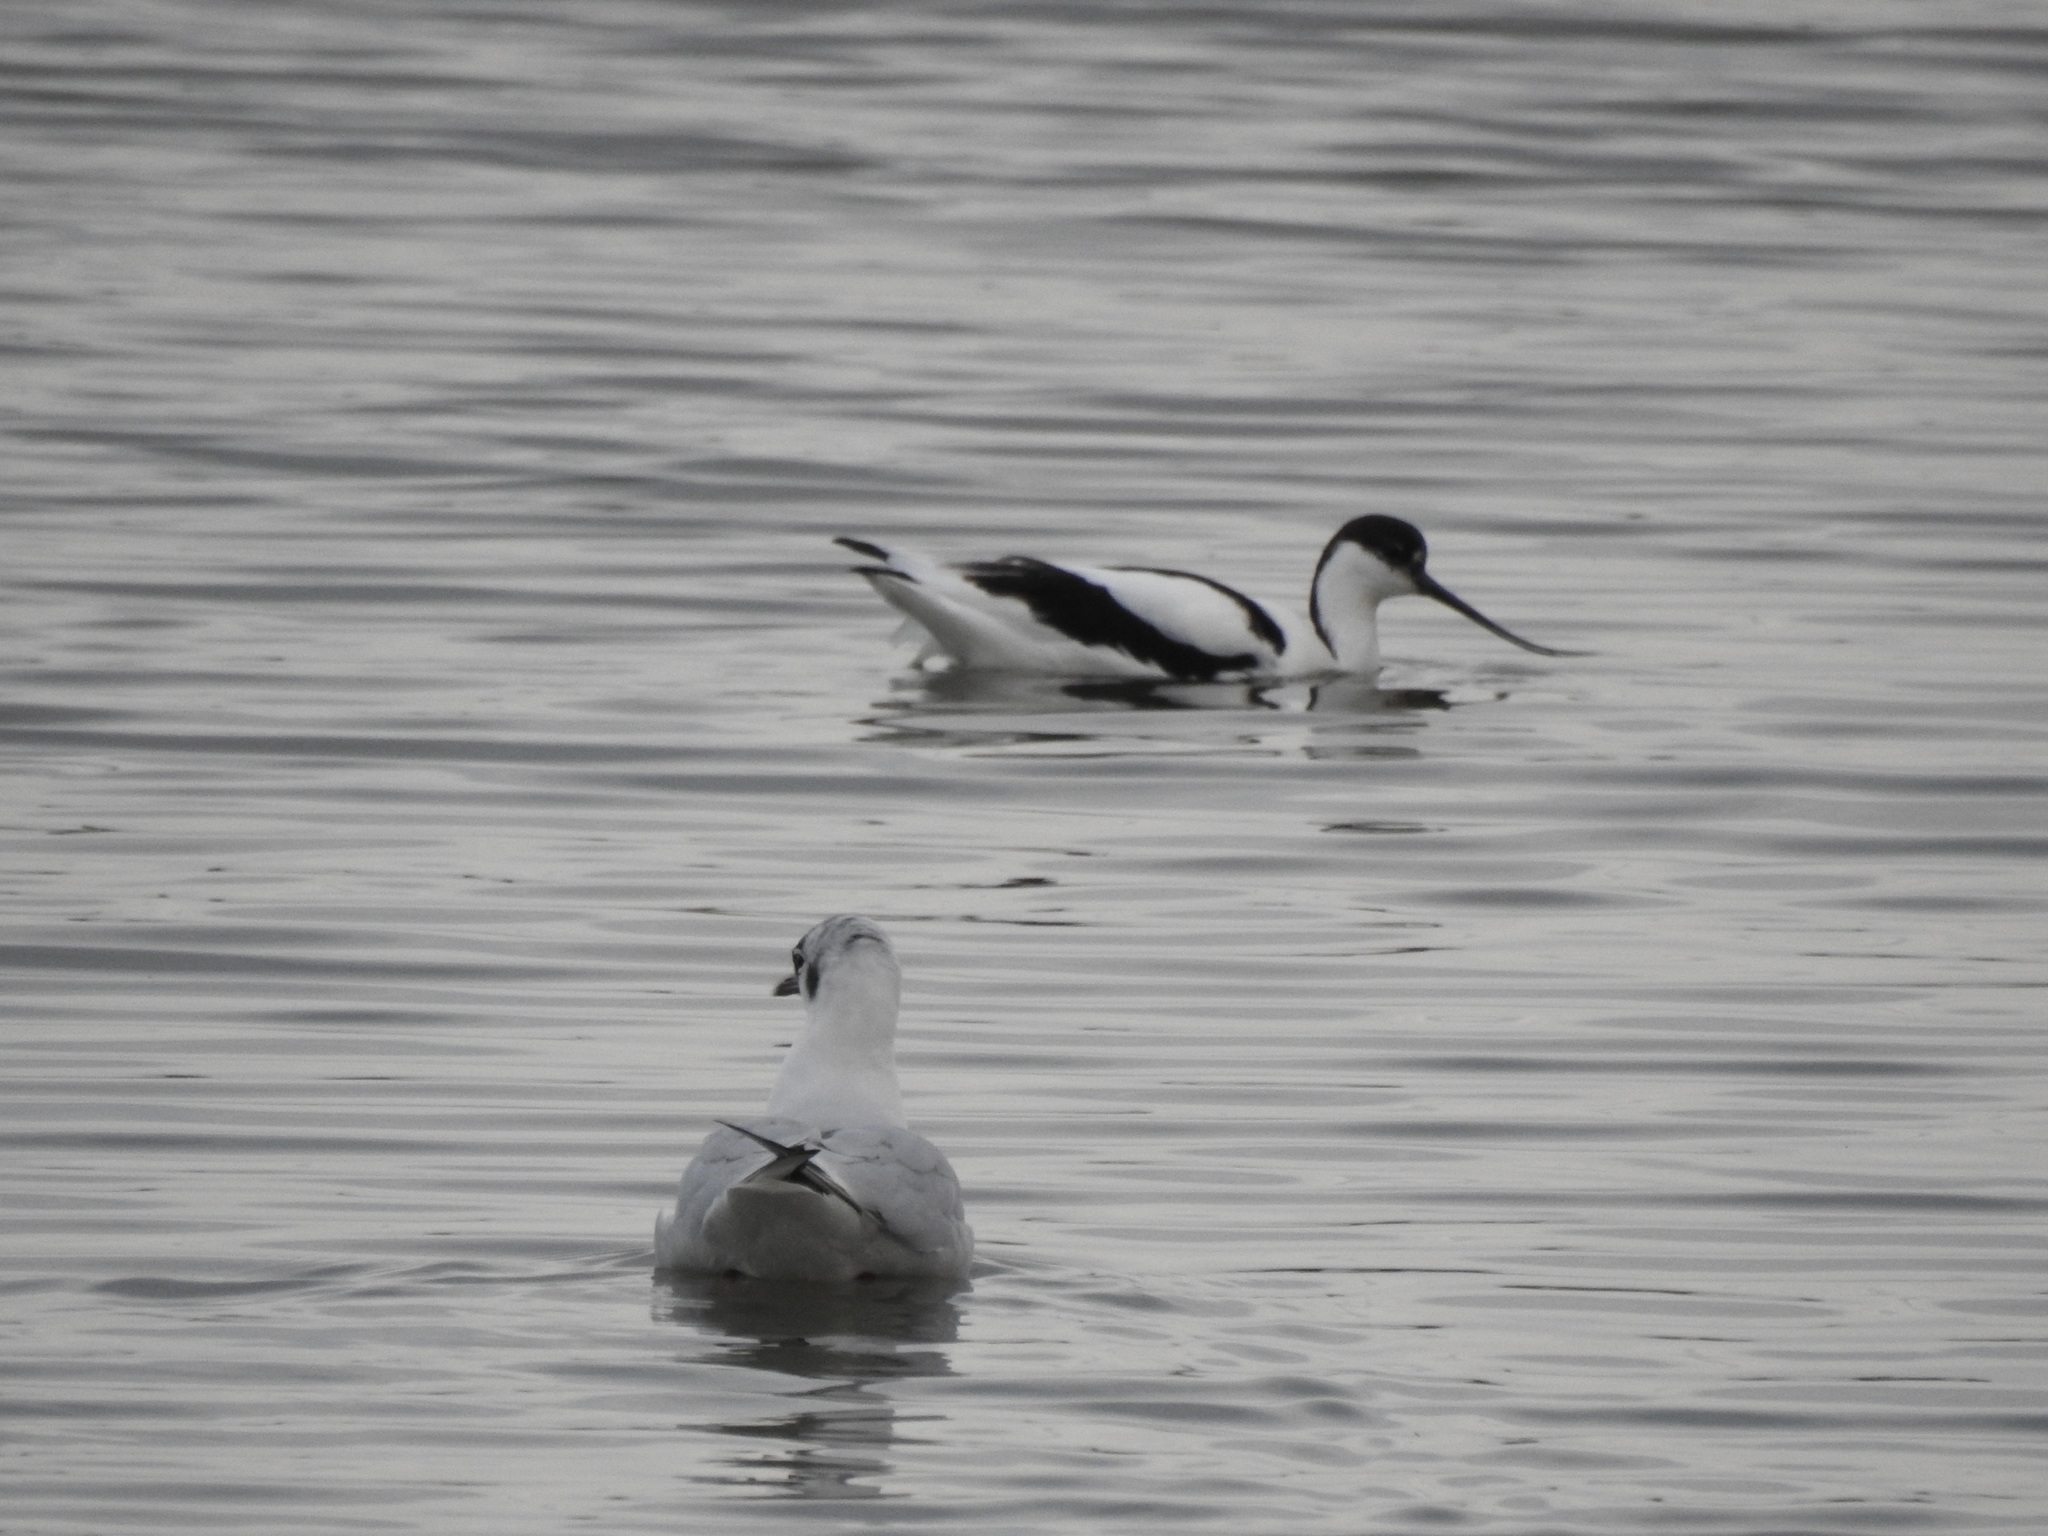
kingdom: Animalia
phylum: Chordata
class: Aves
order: Charadriiformes
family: Recurvirostridae
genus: Recurvirostra
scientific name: Recurvirostra avosetta
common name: Pied avocet
